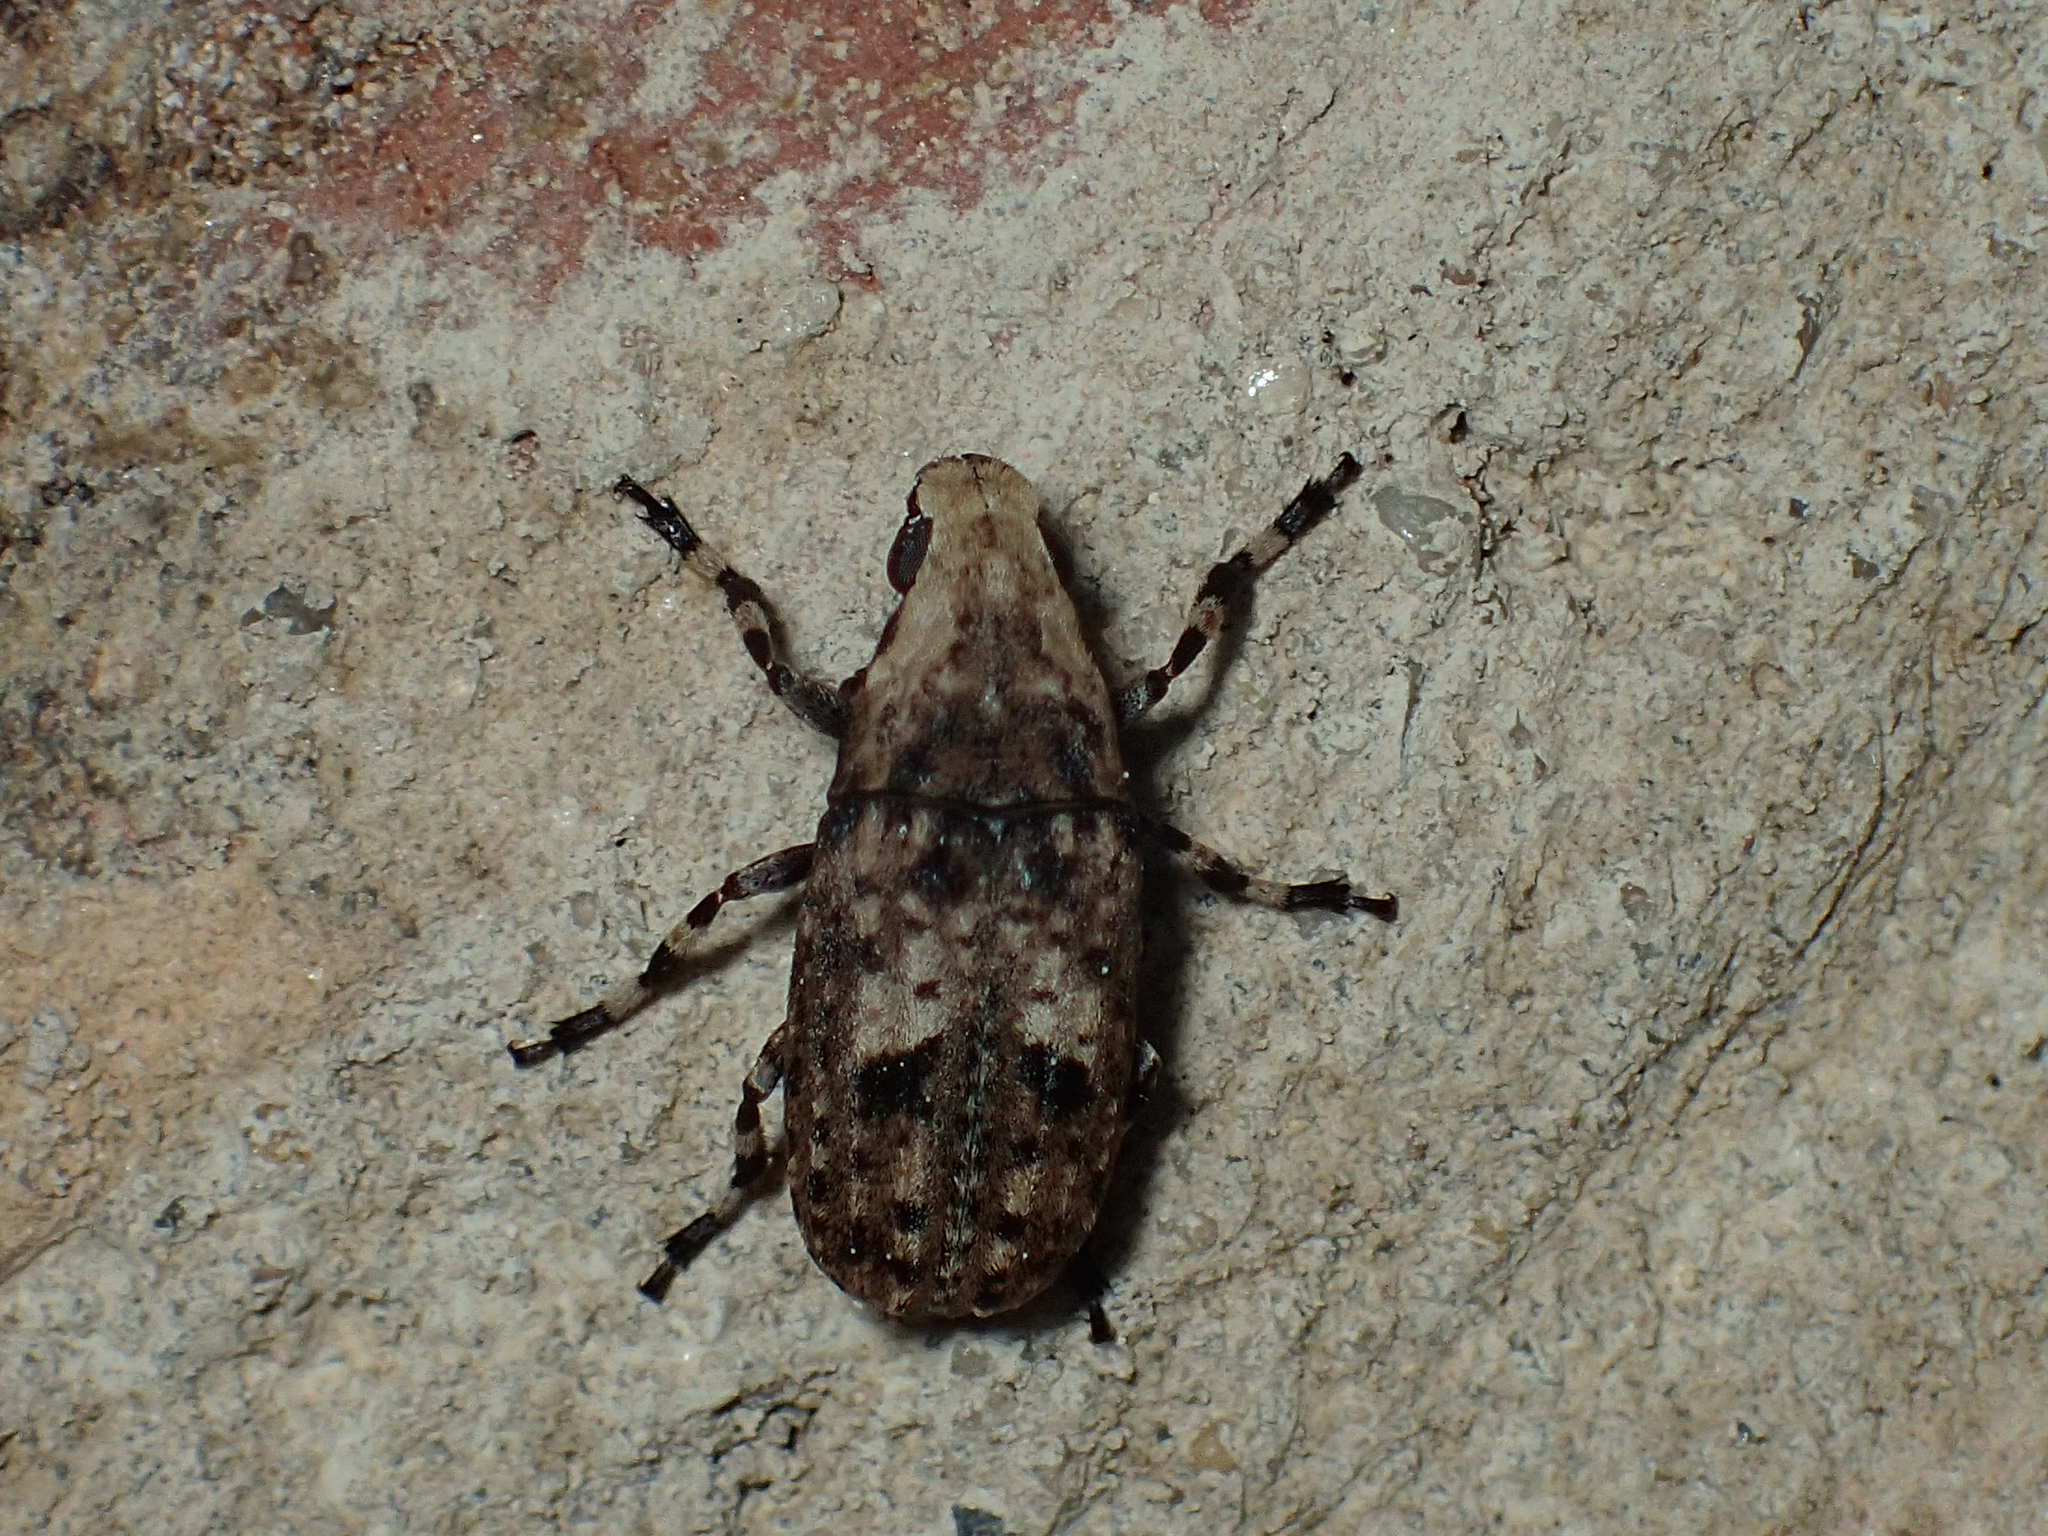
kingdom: Animalia
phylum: Arthropoda
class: Insecta
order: Coleoptera
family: Anthribidae
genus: Euparius
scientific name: Euparius marmoreus
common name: Marbled fungus weevil
